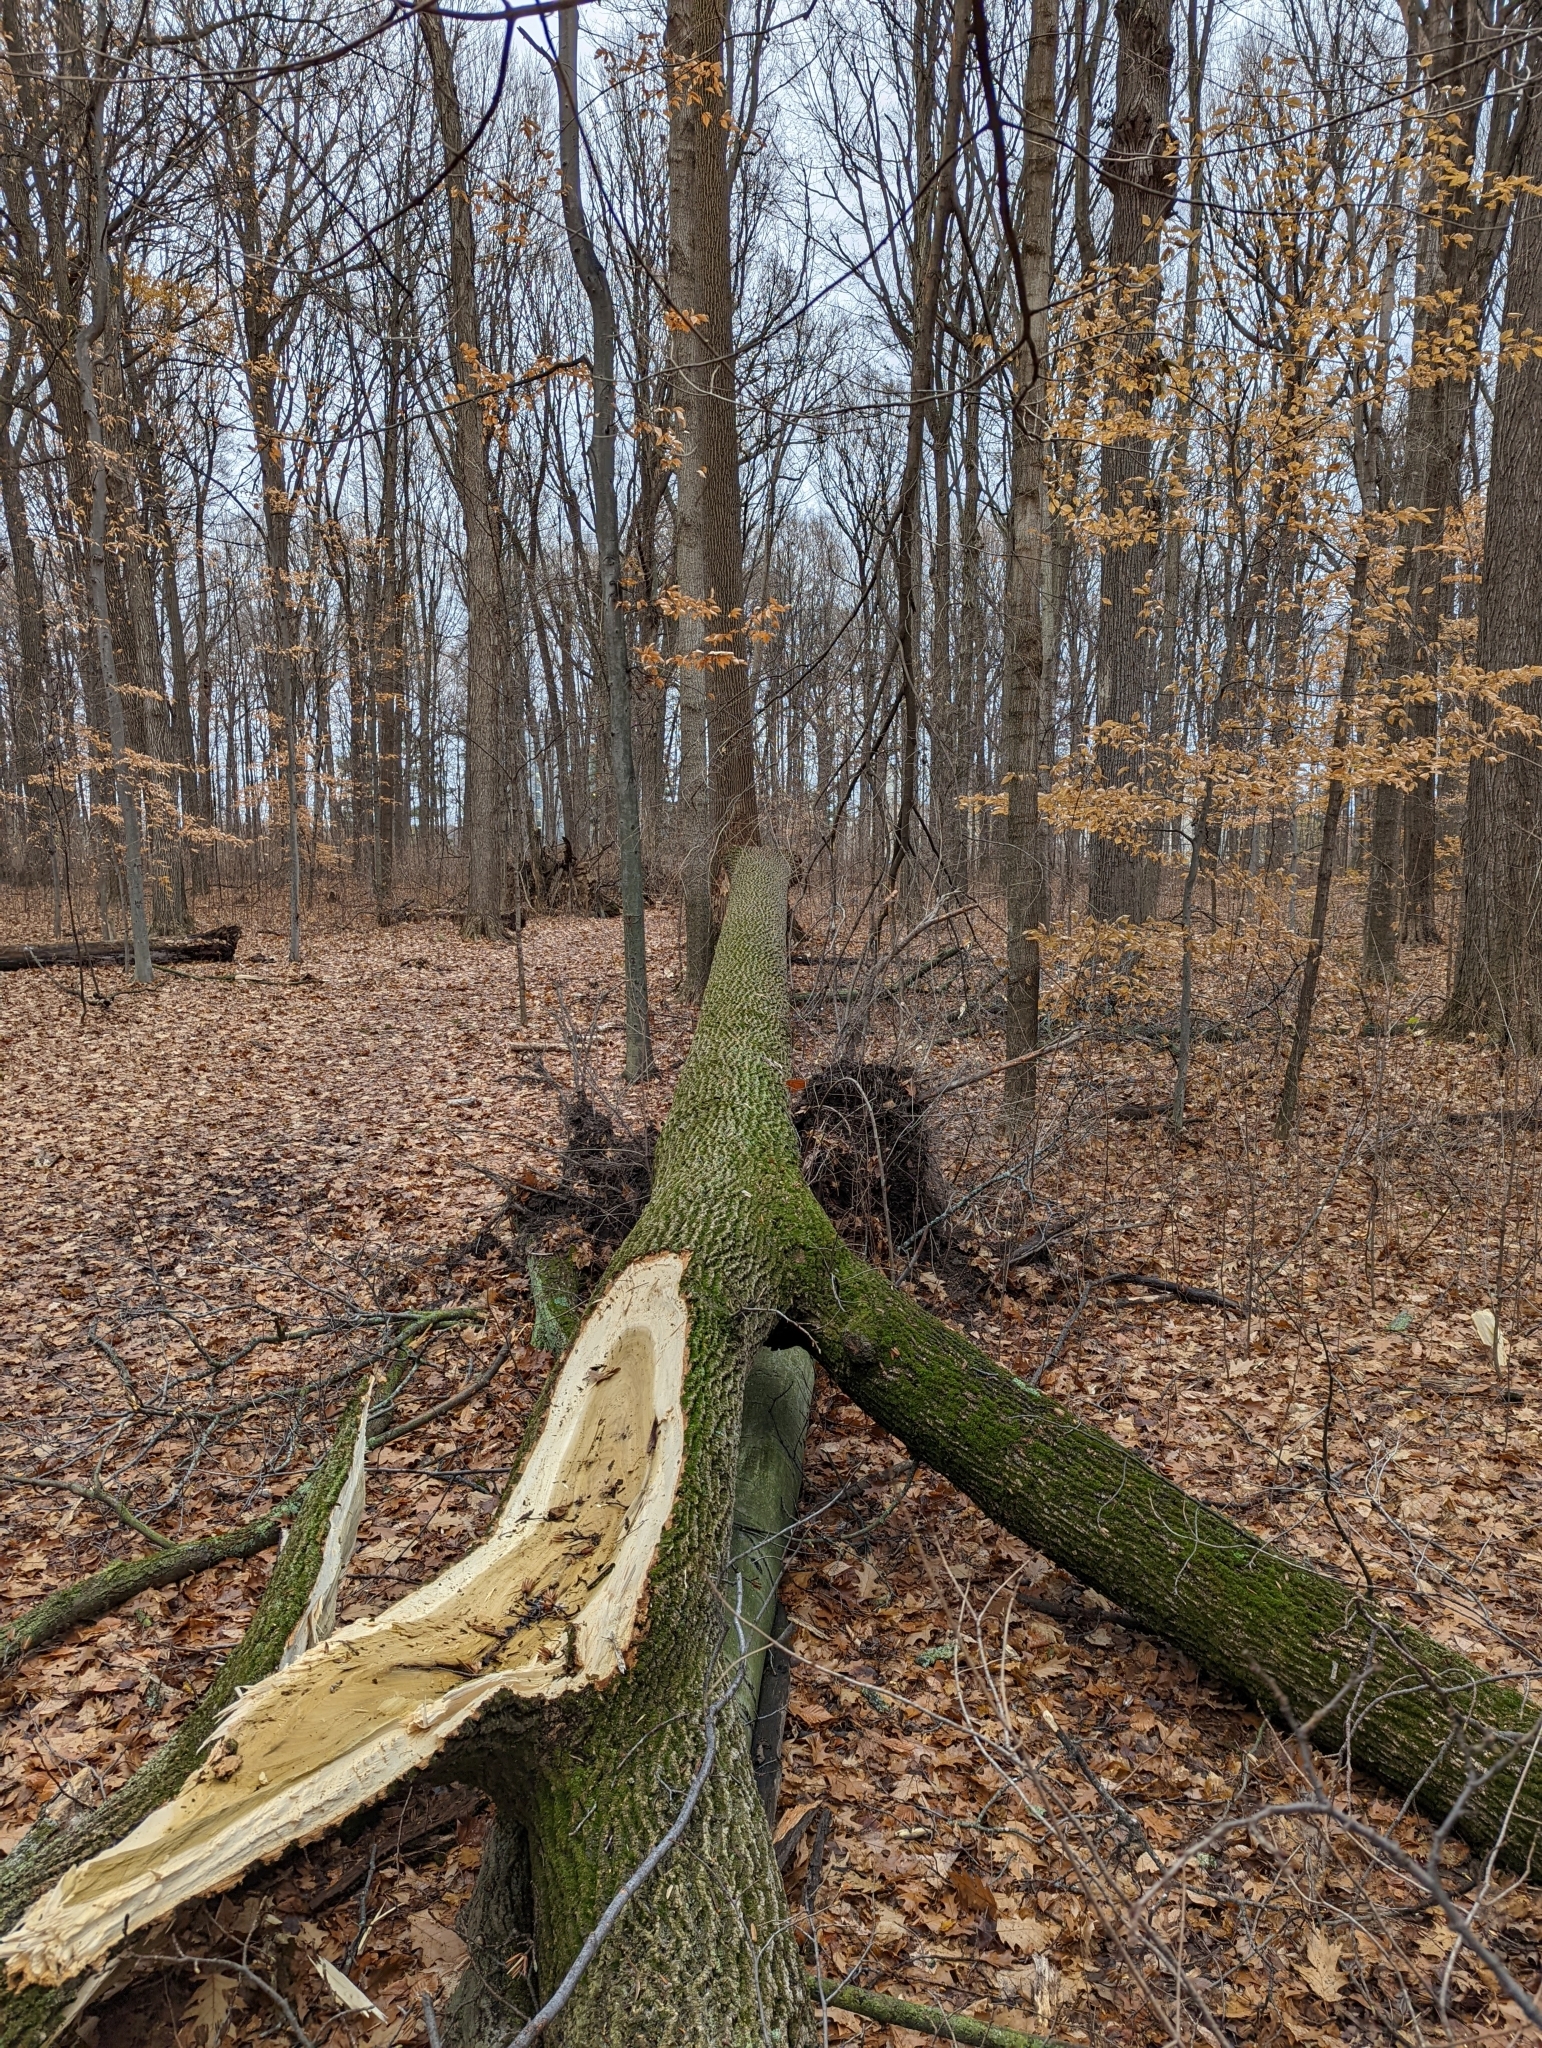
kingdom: Plantae
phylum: Tracheophyta
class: Magnoliopsida
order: Magnoliales
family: Magnoliaceae
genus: Liriodendron
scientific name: Liriodendron tulipifera
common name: Tulip tree
